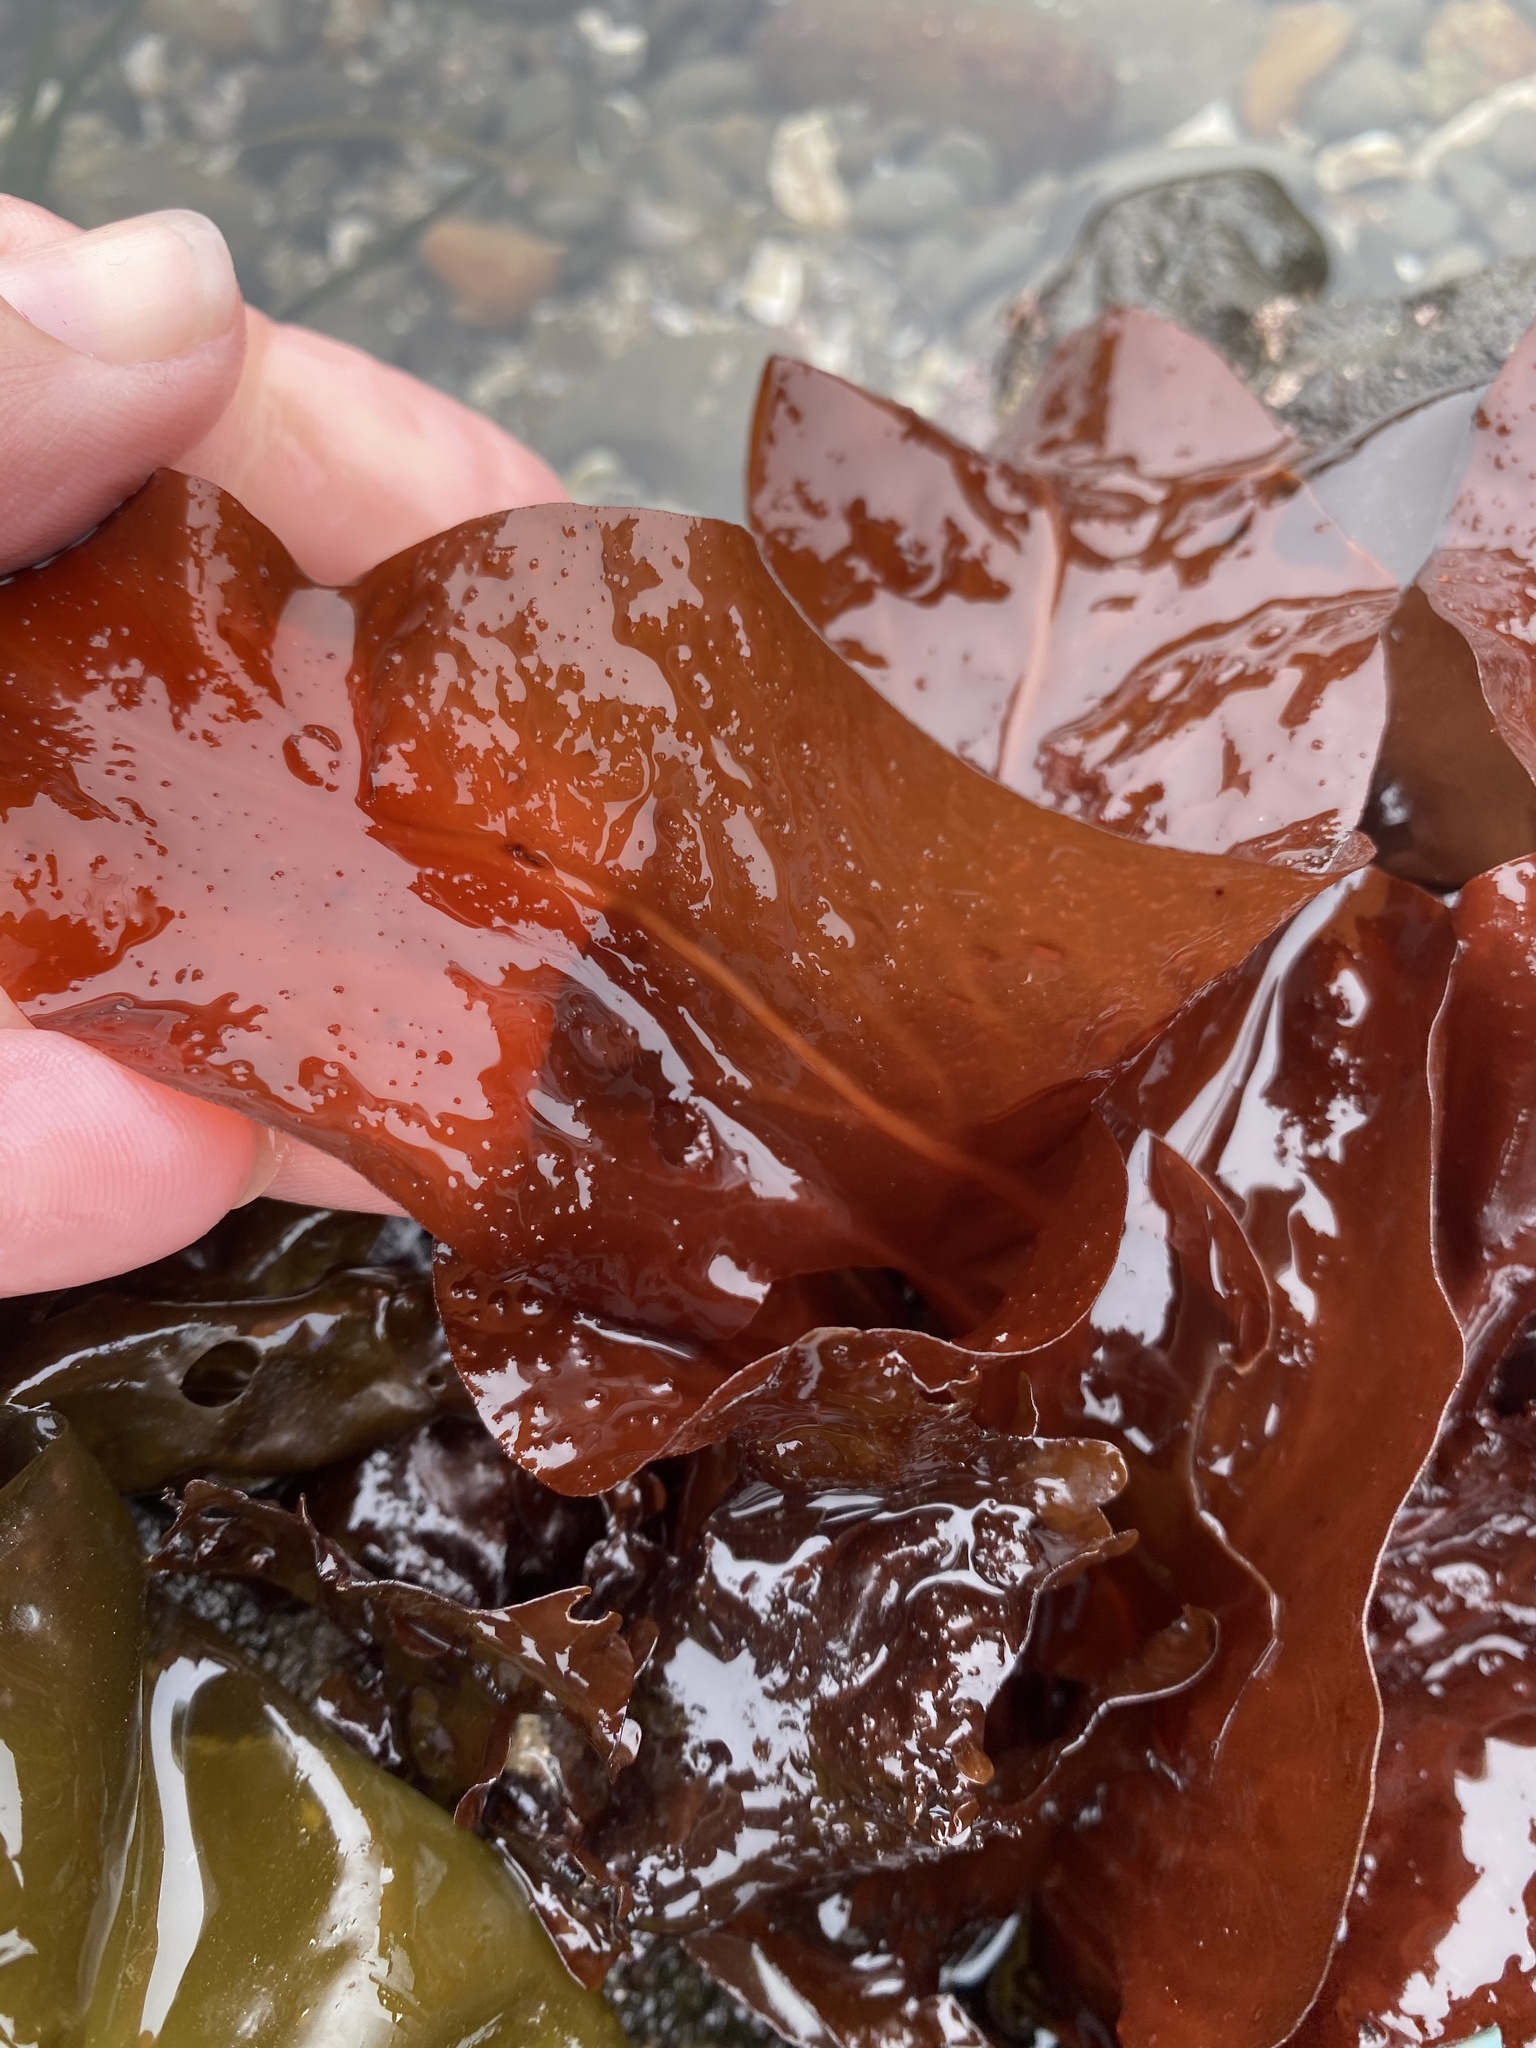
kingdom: Plantae
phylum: Rhodophyta
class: Florideophyceae
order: Gigartinales
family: Kallymeniaceae
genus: Erythrophyllum
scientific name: Erythrophyllum delesserioides
